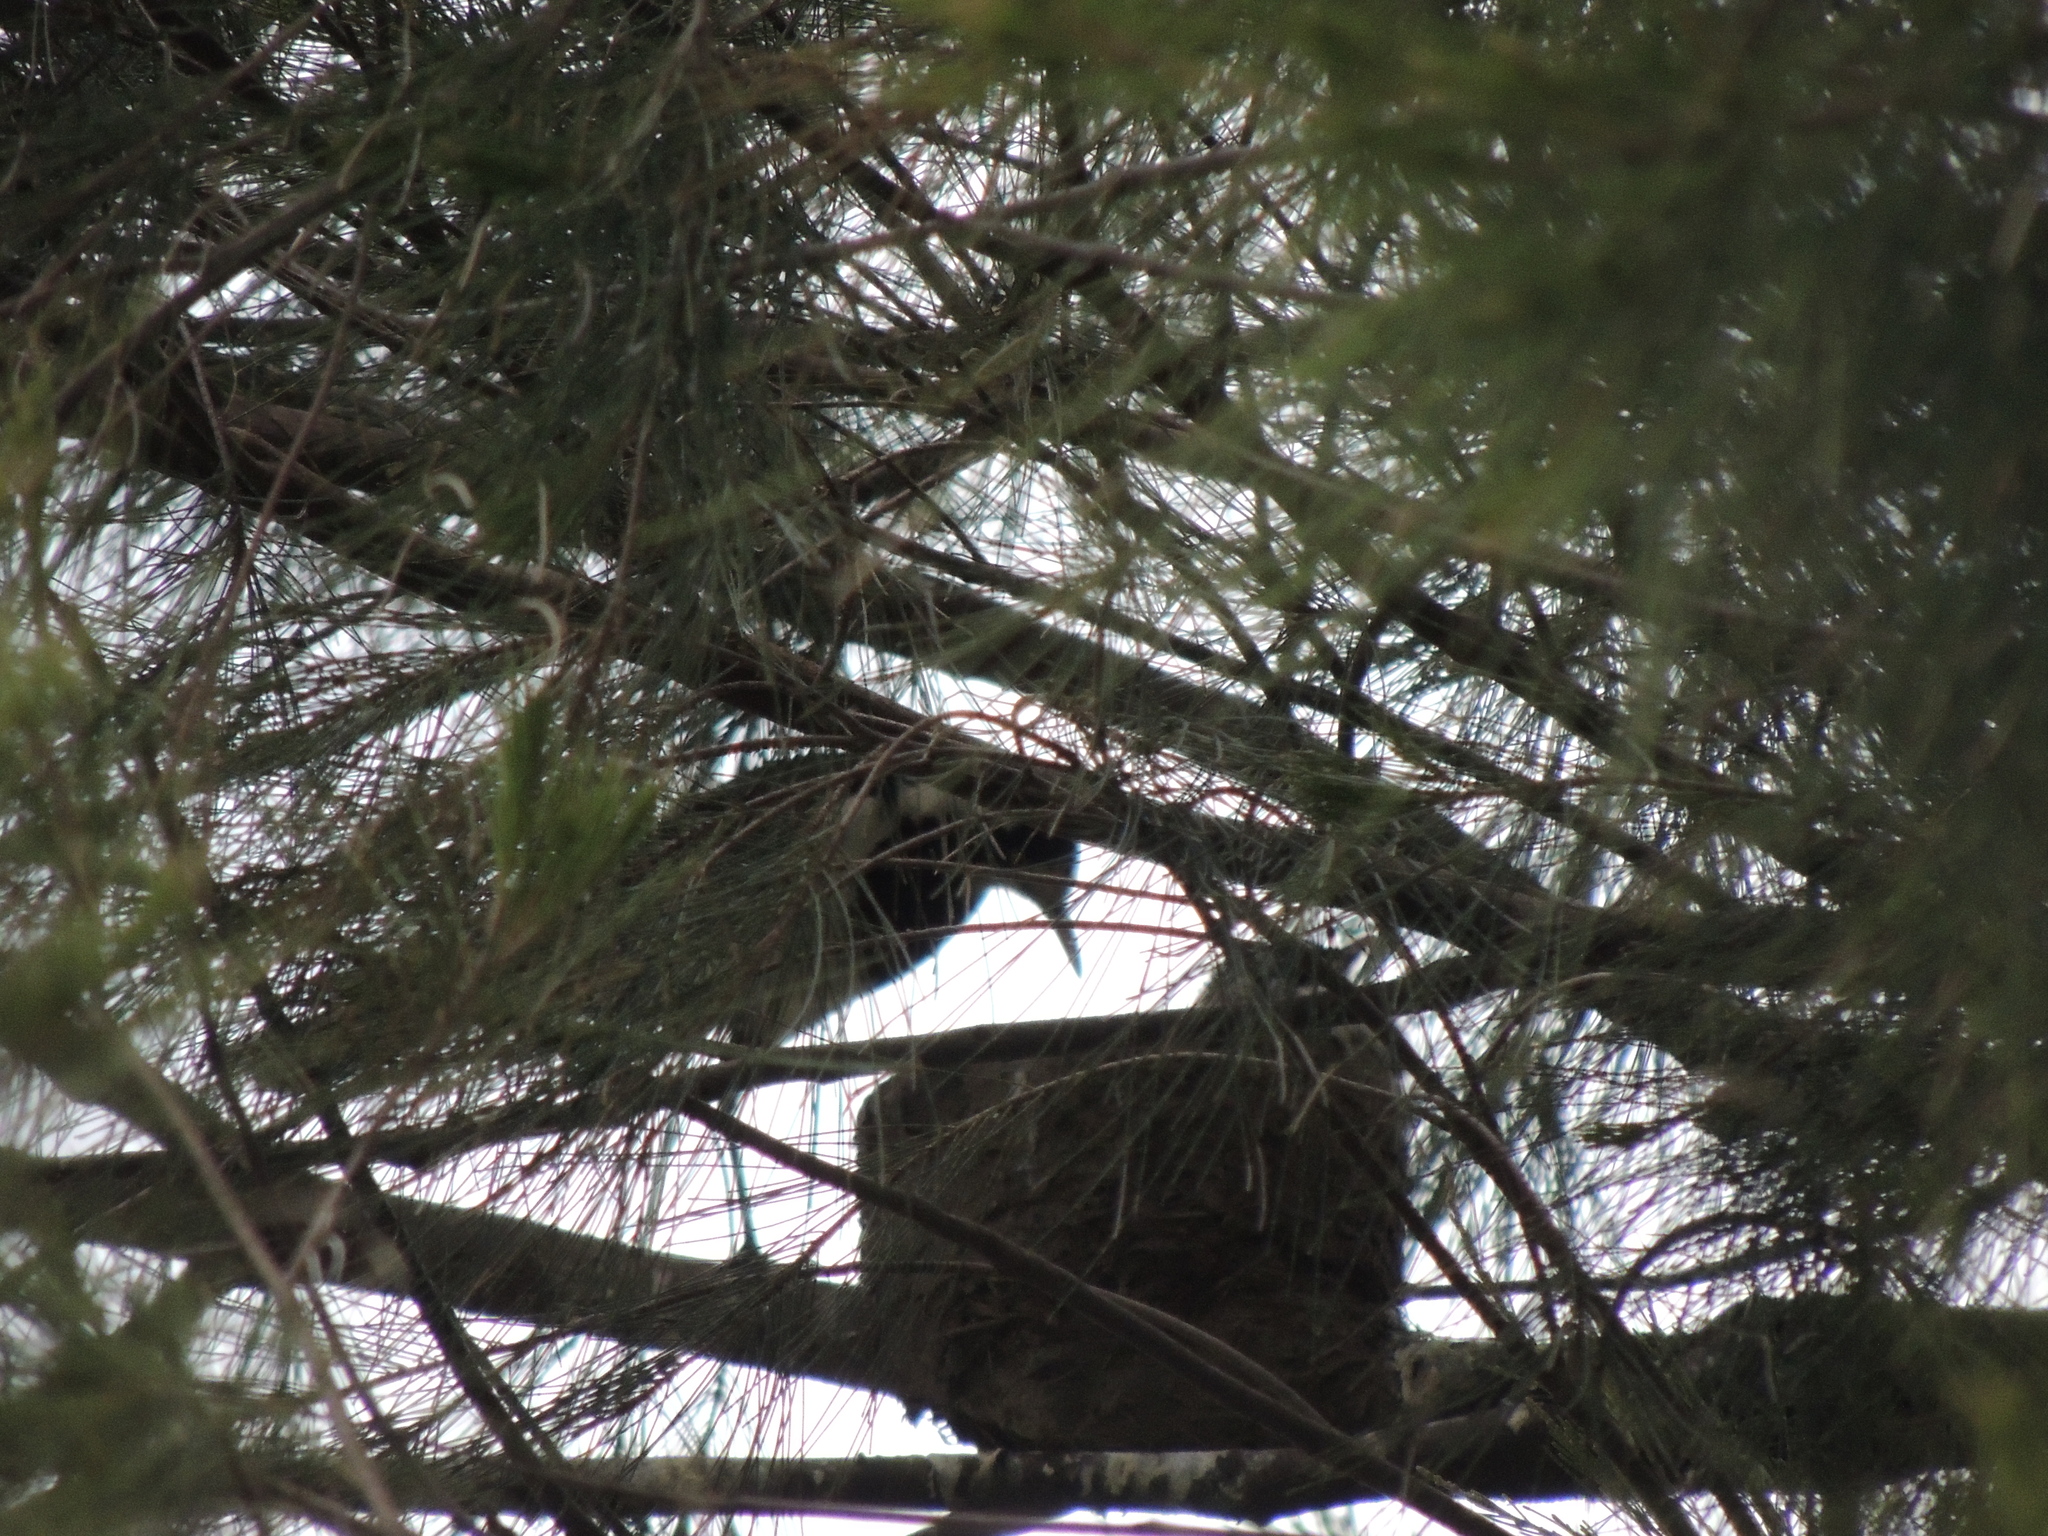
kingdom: Animalia
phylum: Chordata
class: Aves
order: Passeriformes
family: Monarchidae
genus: Grallina
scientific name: Grallina cyanoleuca
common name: Magpie-lark
